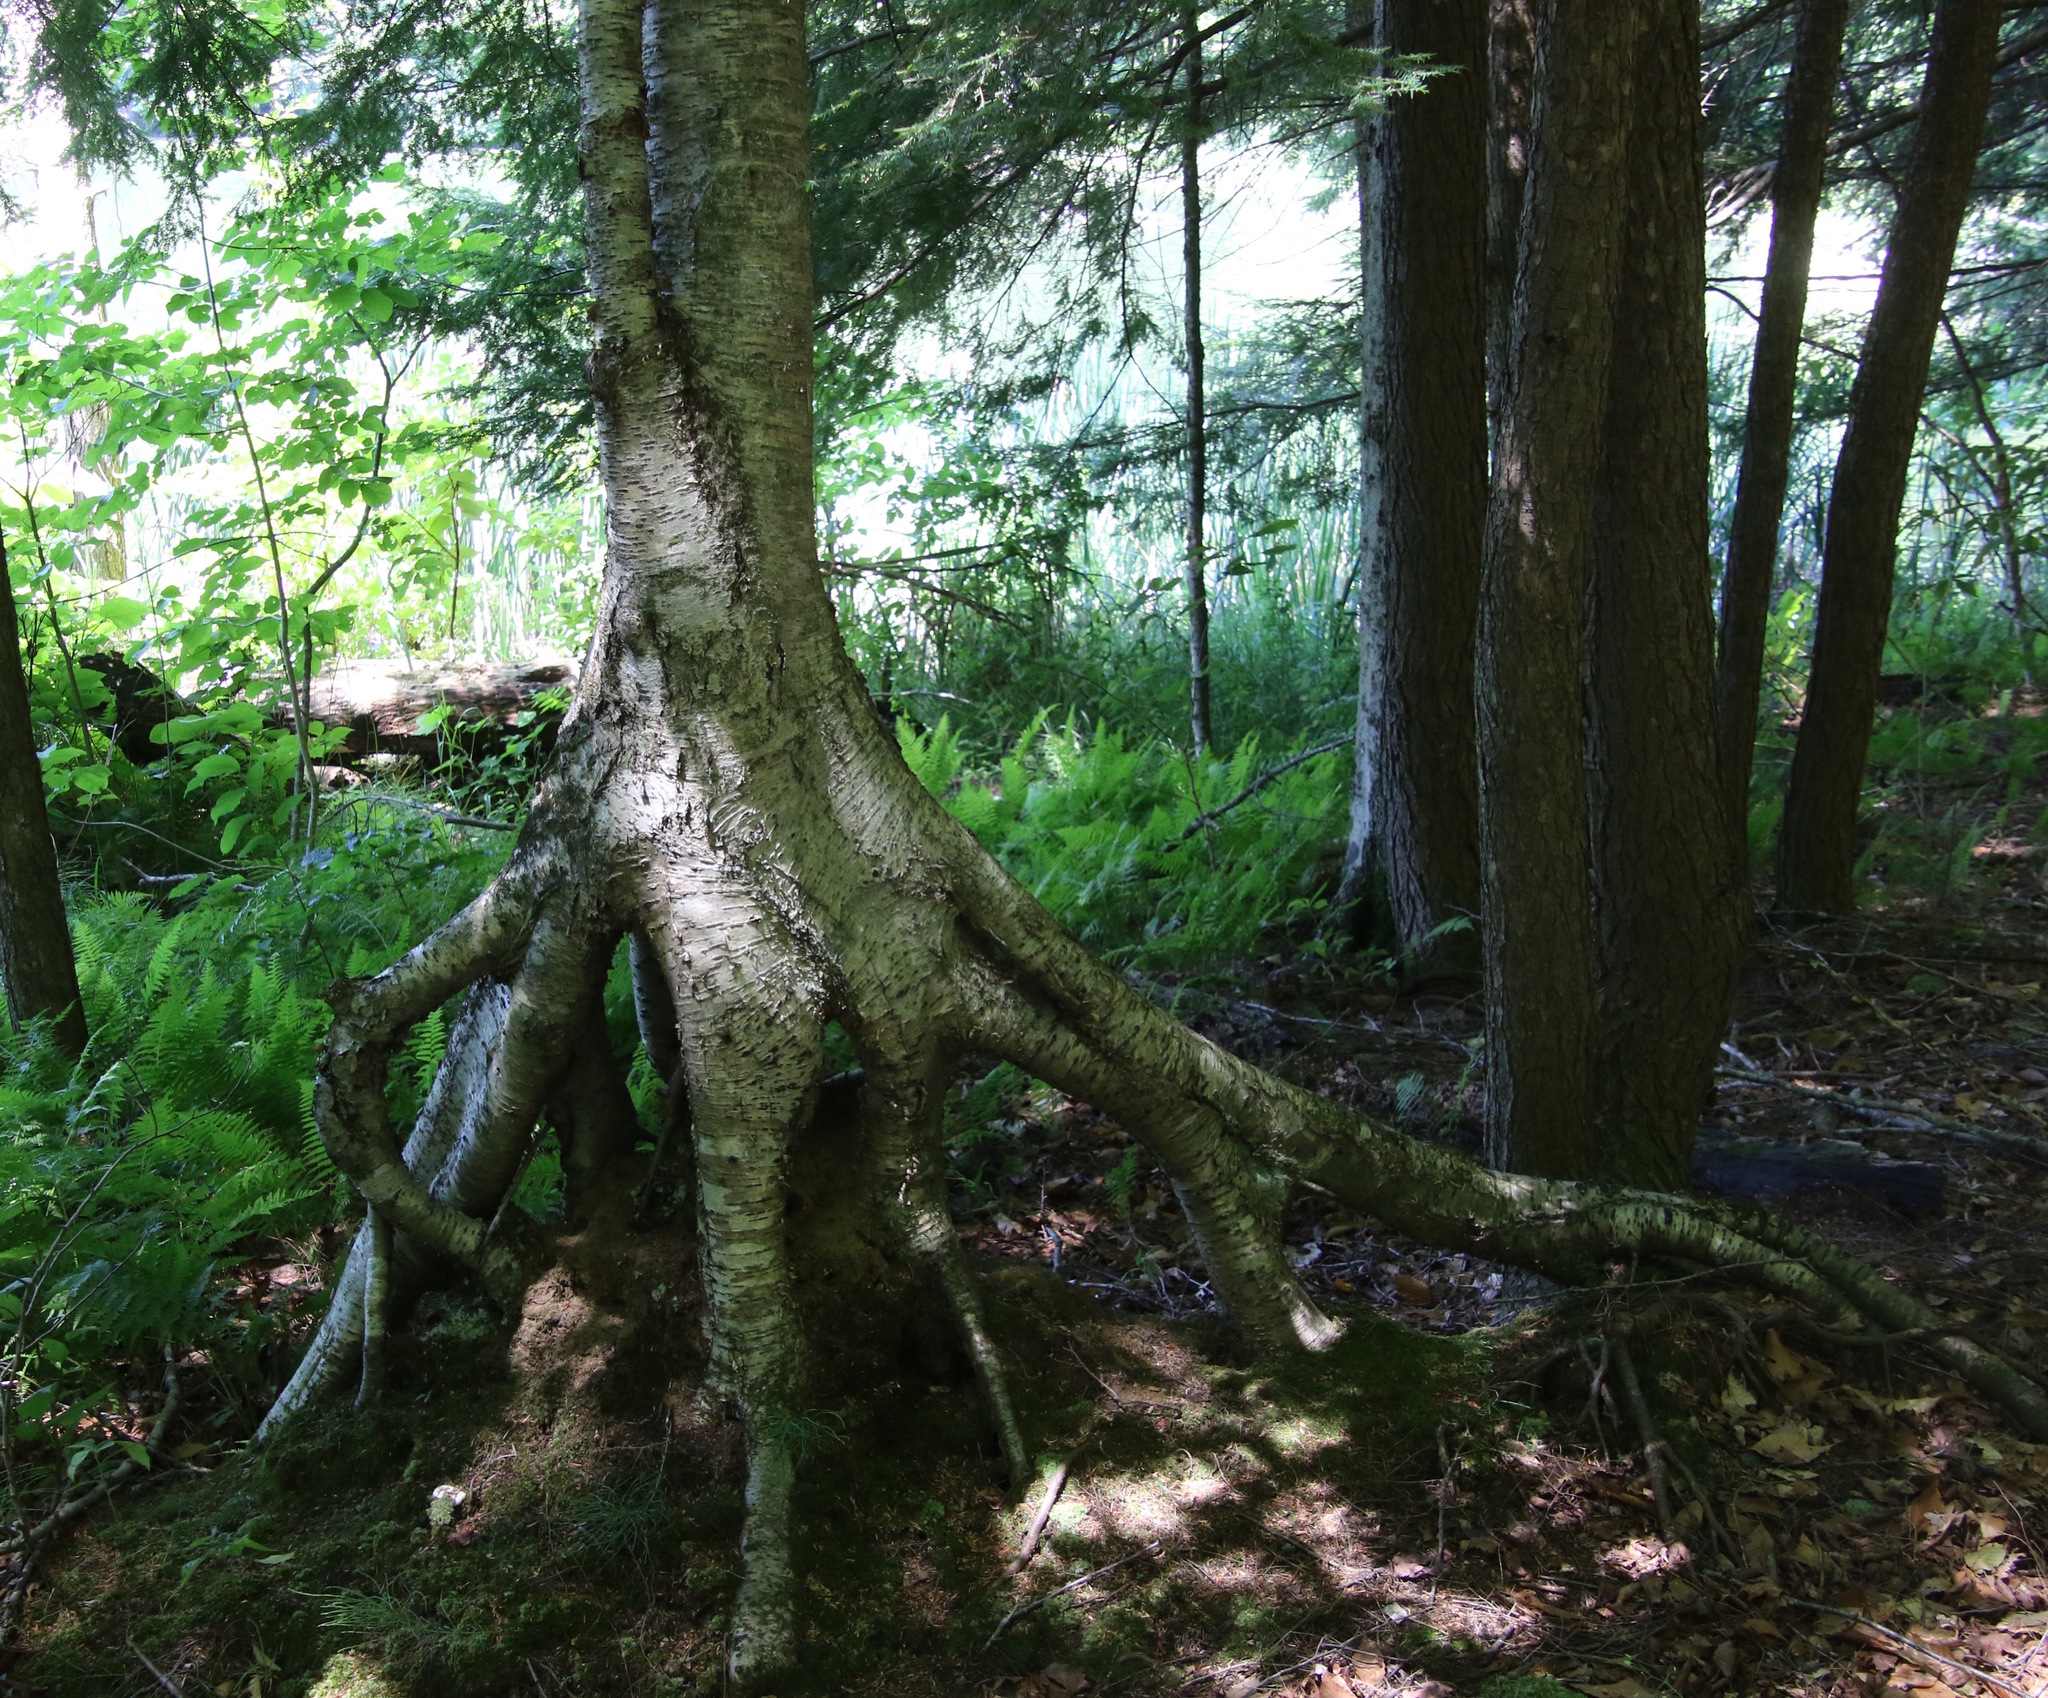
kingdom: Plantae
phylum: Tracheophyta
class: Magnoliopsida
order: Fagales
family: Betulaceae
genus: Betula
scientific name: Betula alleghaniensis
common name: Yellow birch
